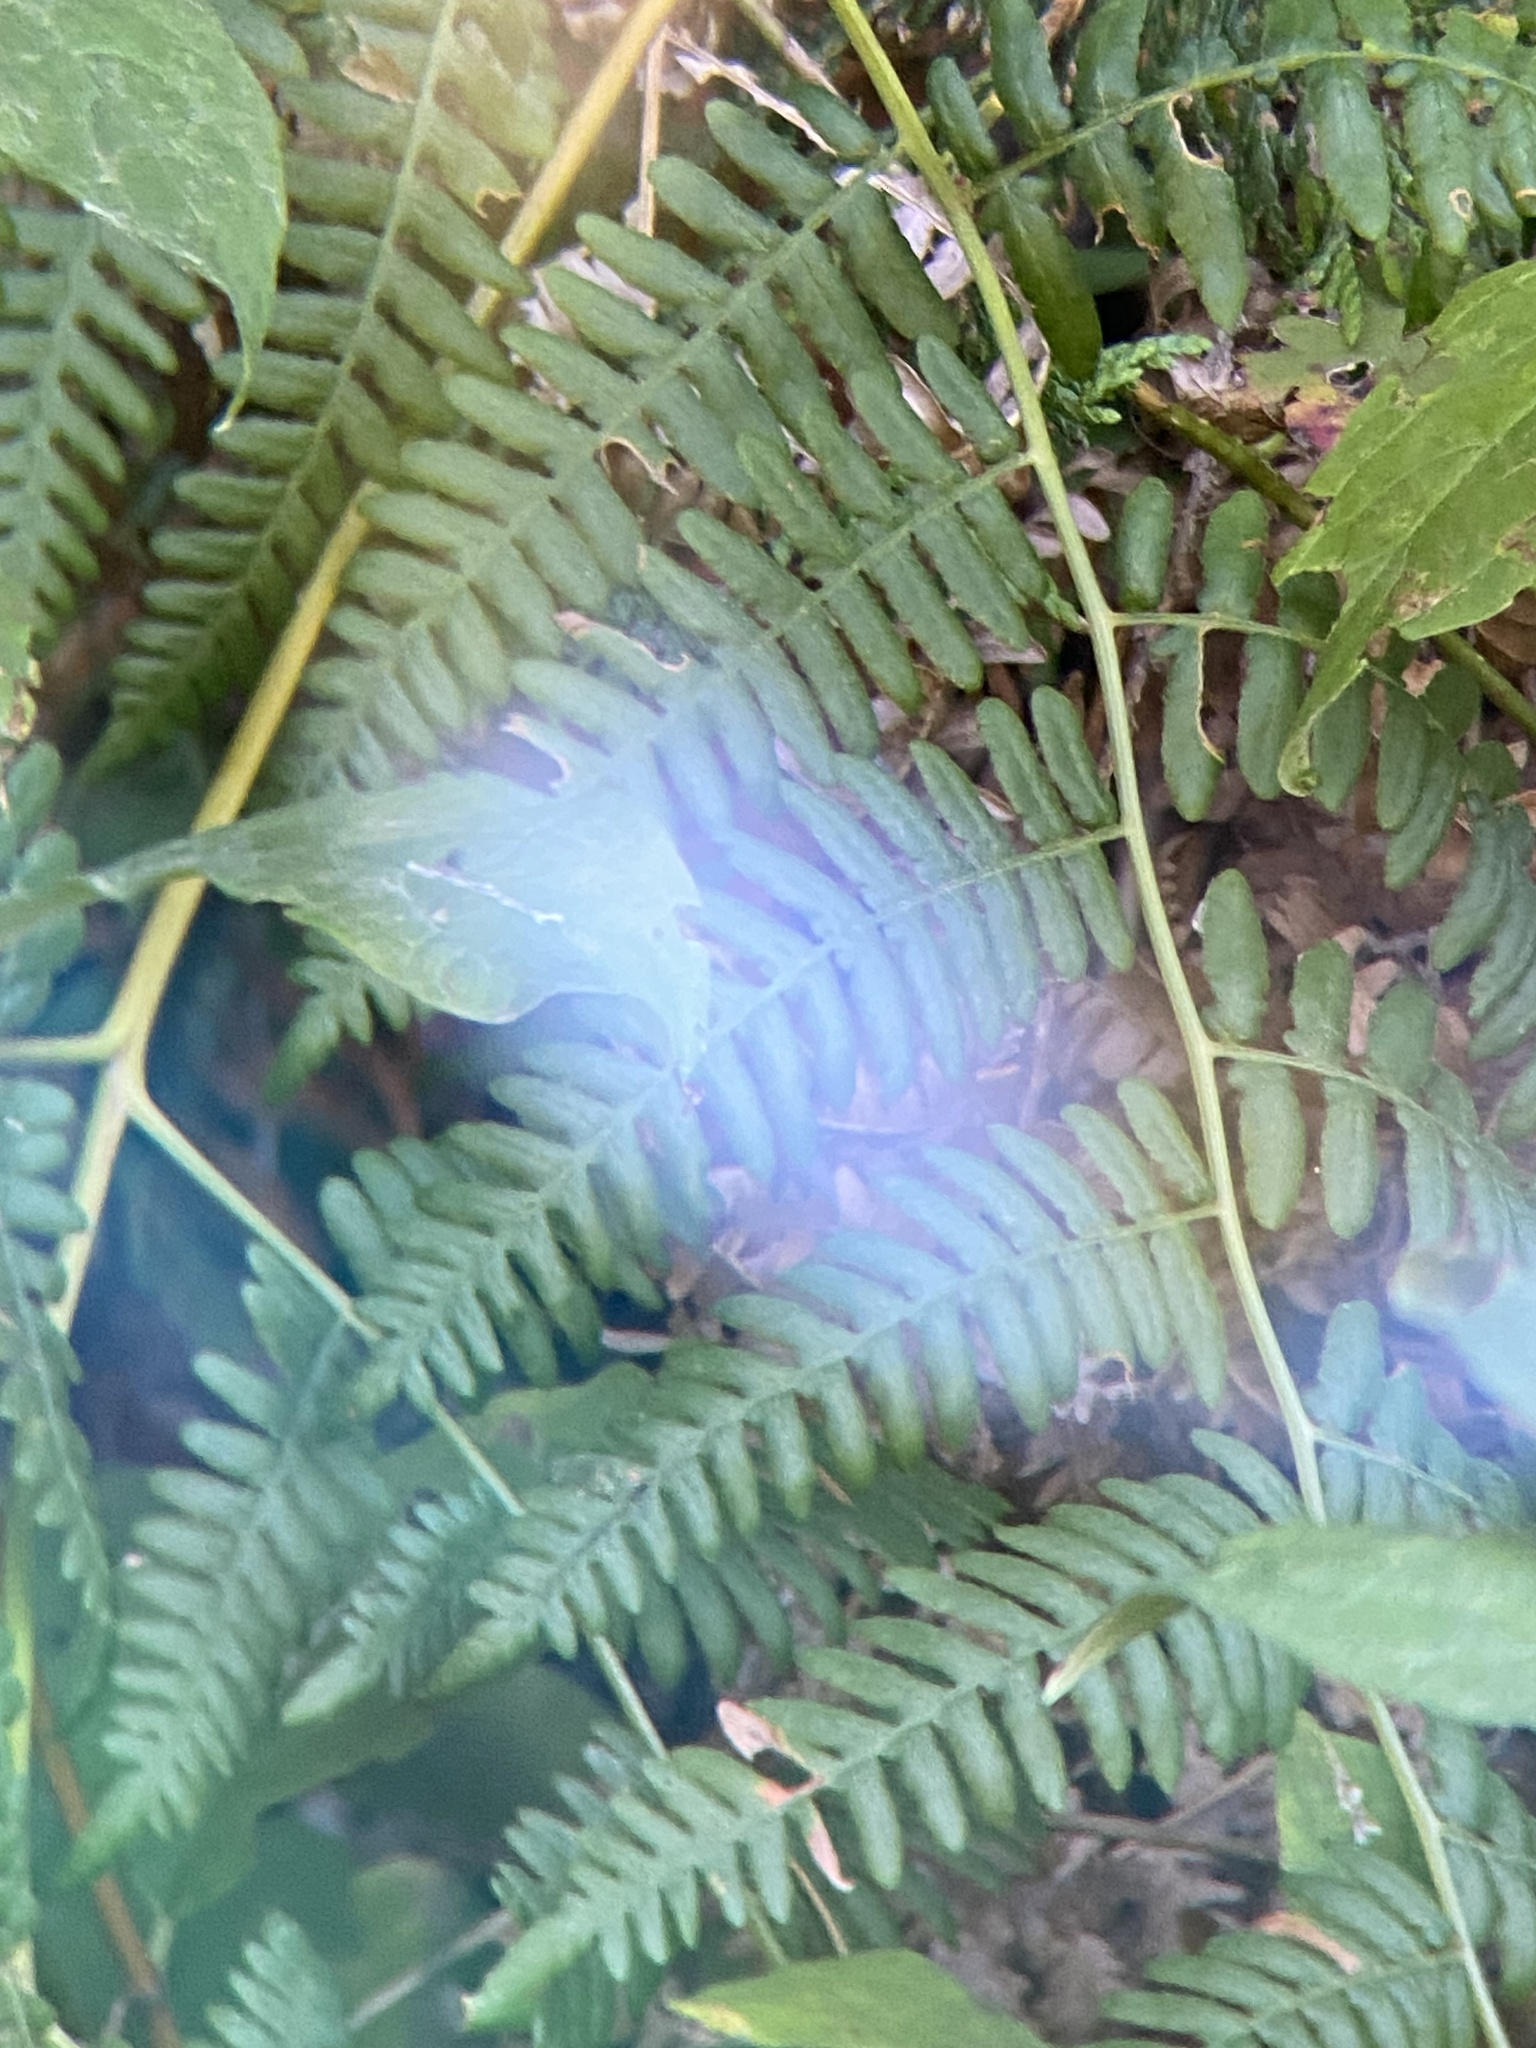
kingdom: Plantae
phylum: Tracheophyta
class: Polypodiopsida
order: Polypodiales
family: Dennstaedtiaceae
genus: Pteridium
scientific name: Pteridium aquilinum
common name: Bracken
